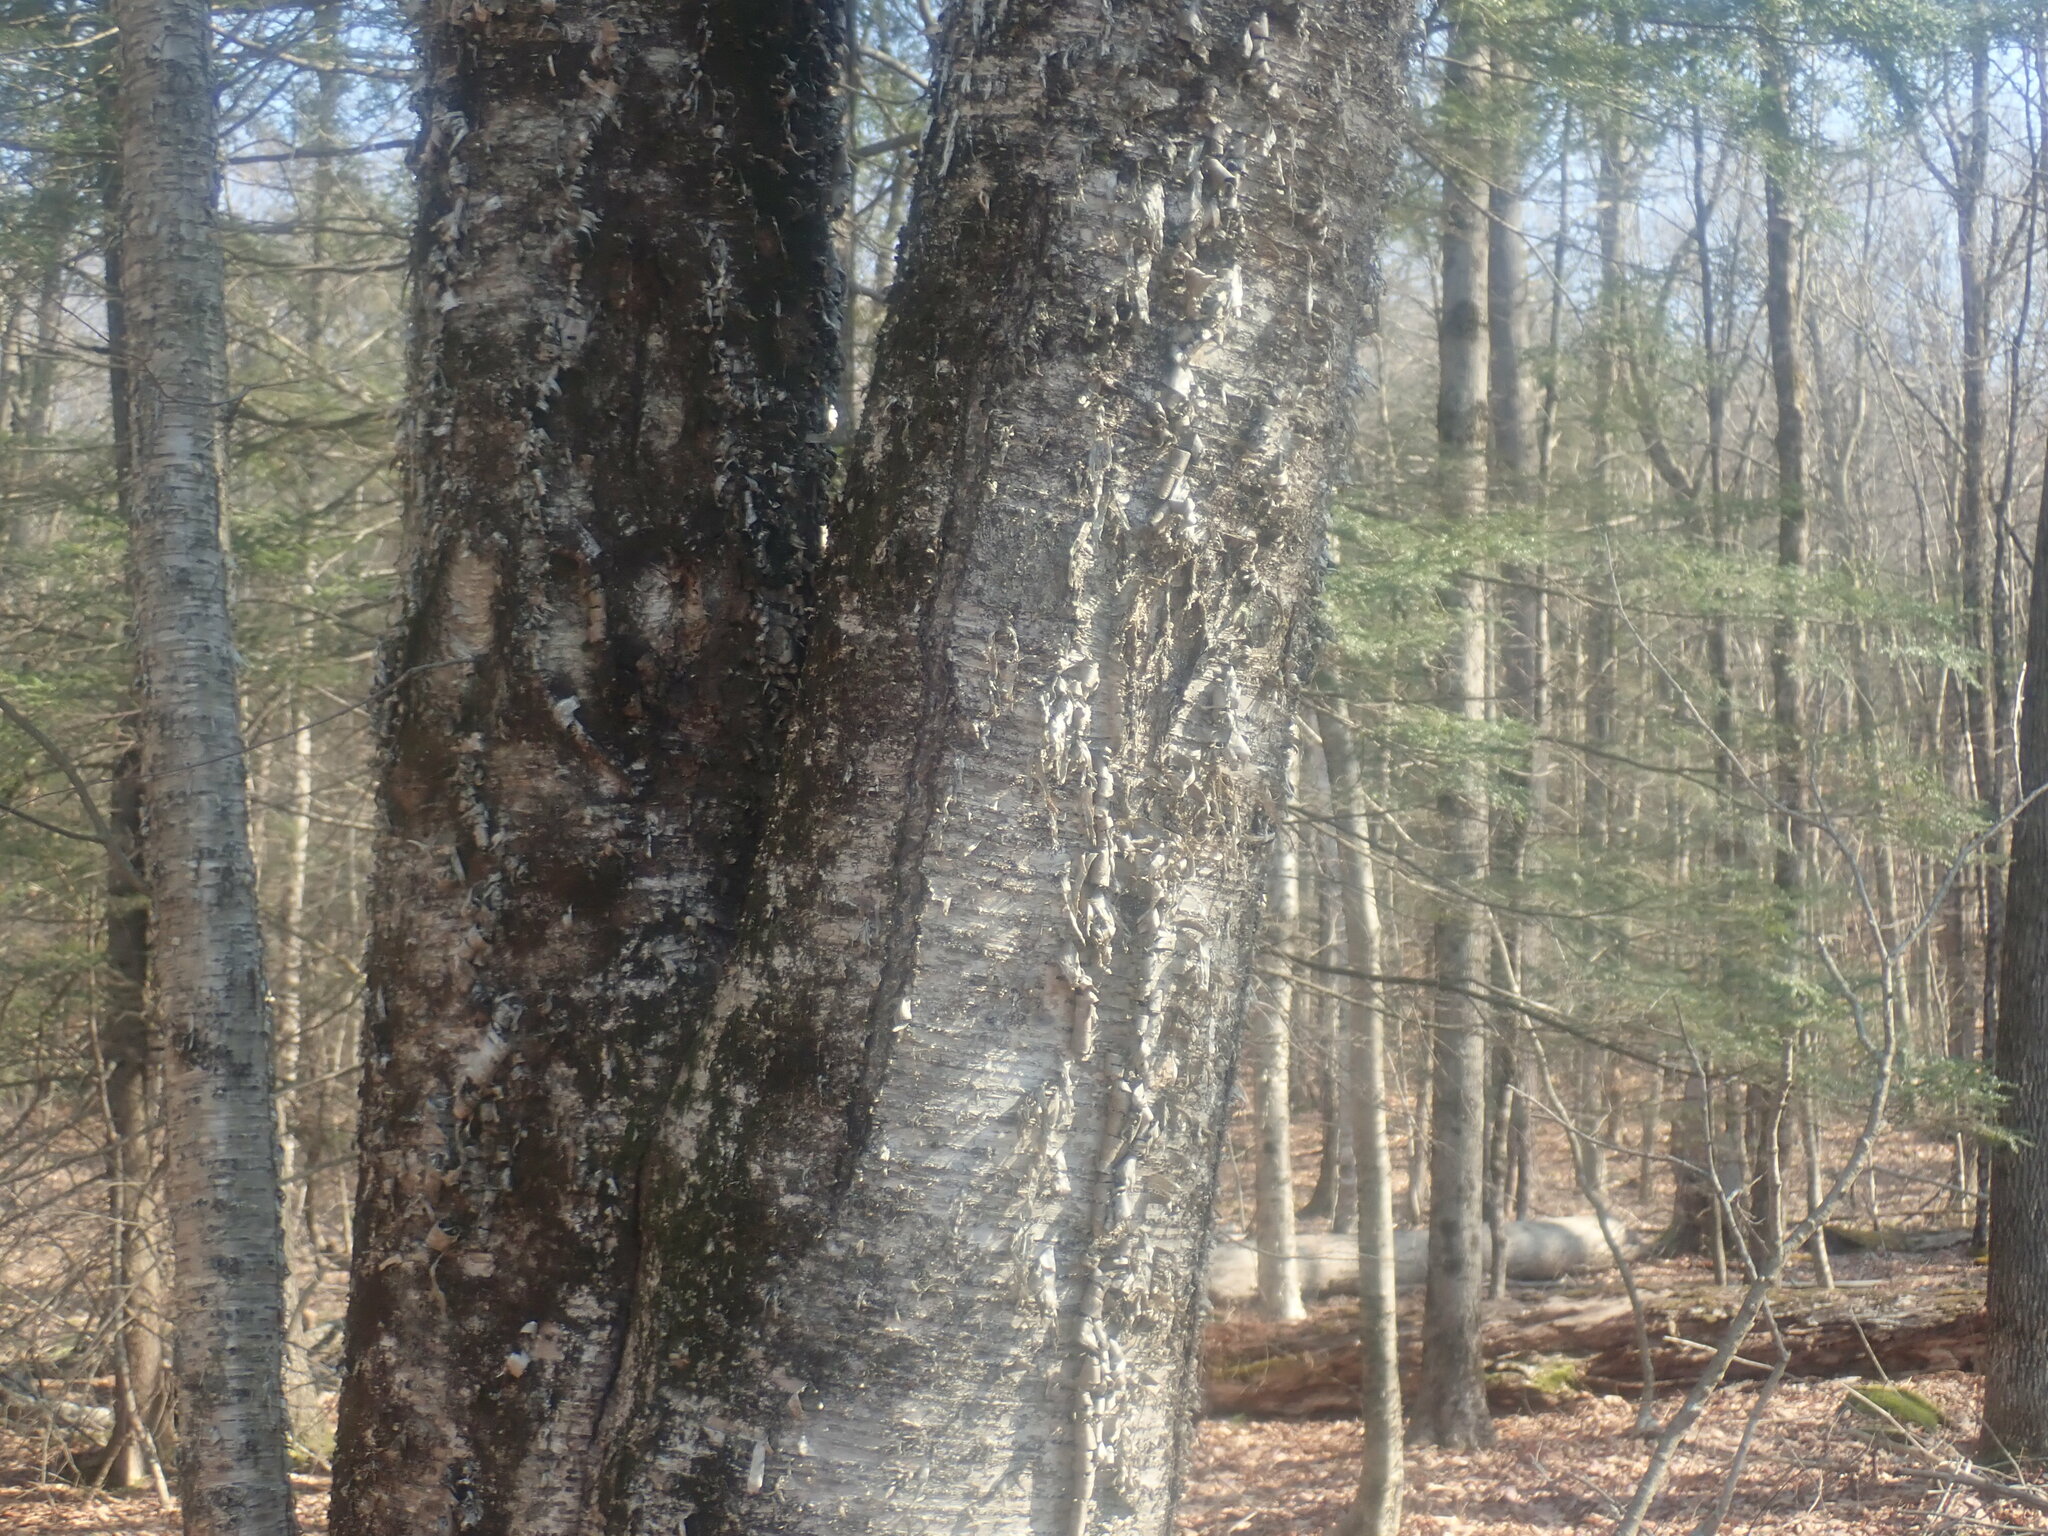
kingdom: Plantae
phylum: Tracheophyta
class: Magnoliopsida
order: Fagales
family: Betulaceae
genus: Betula
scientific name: Betula alleghaniensis
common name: Yellow birch
